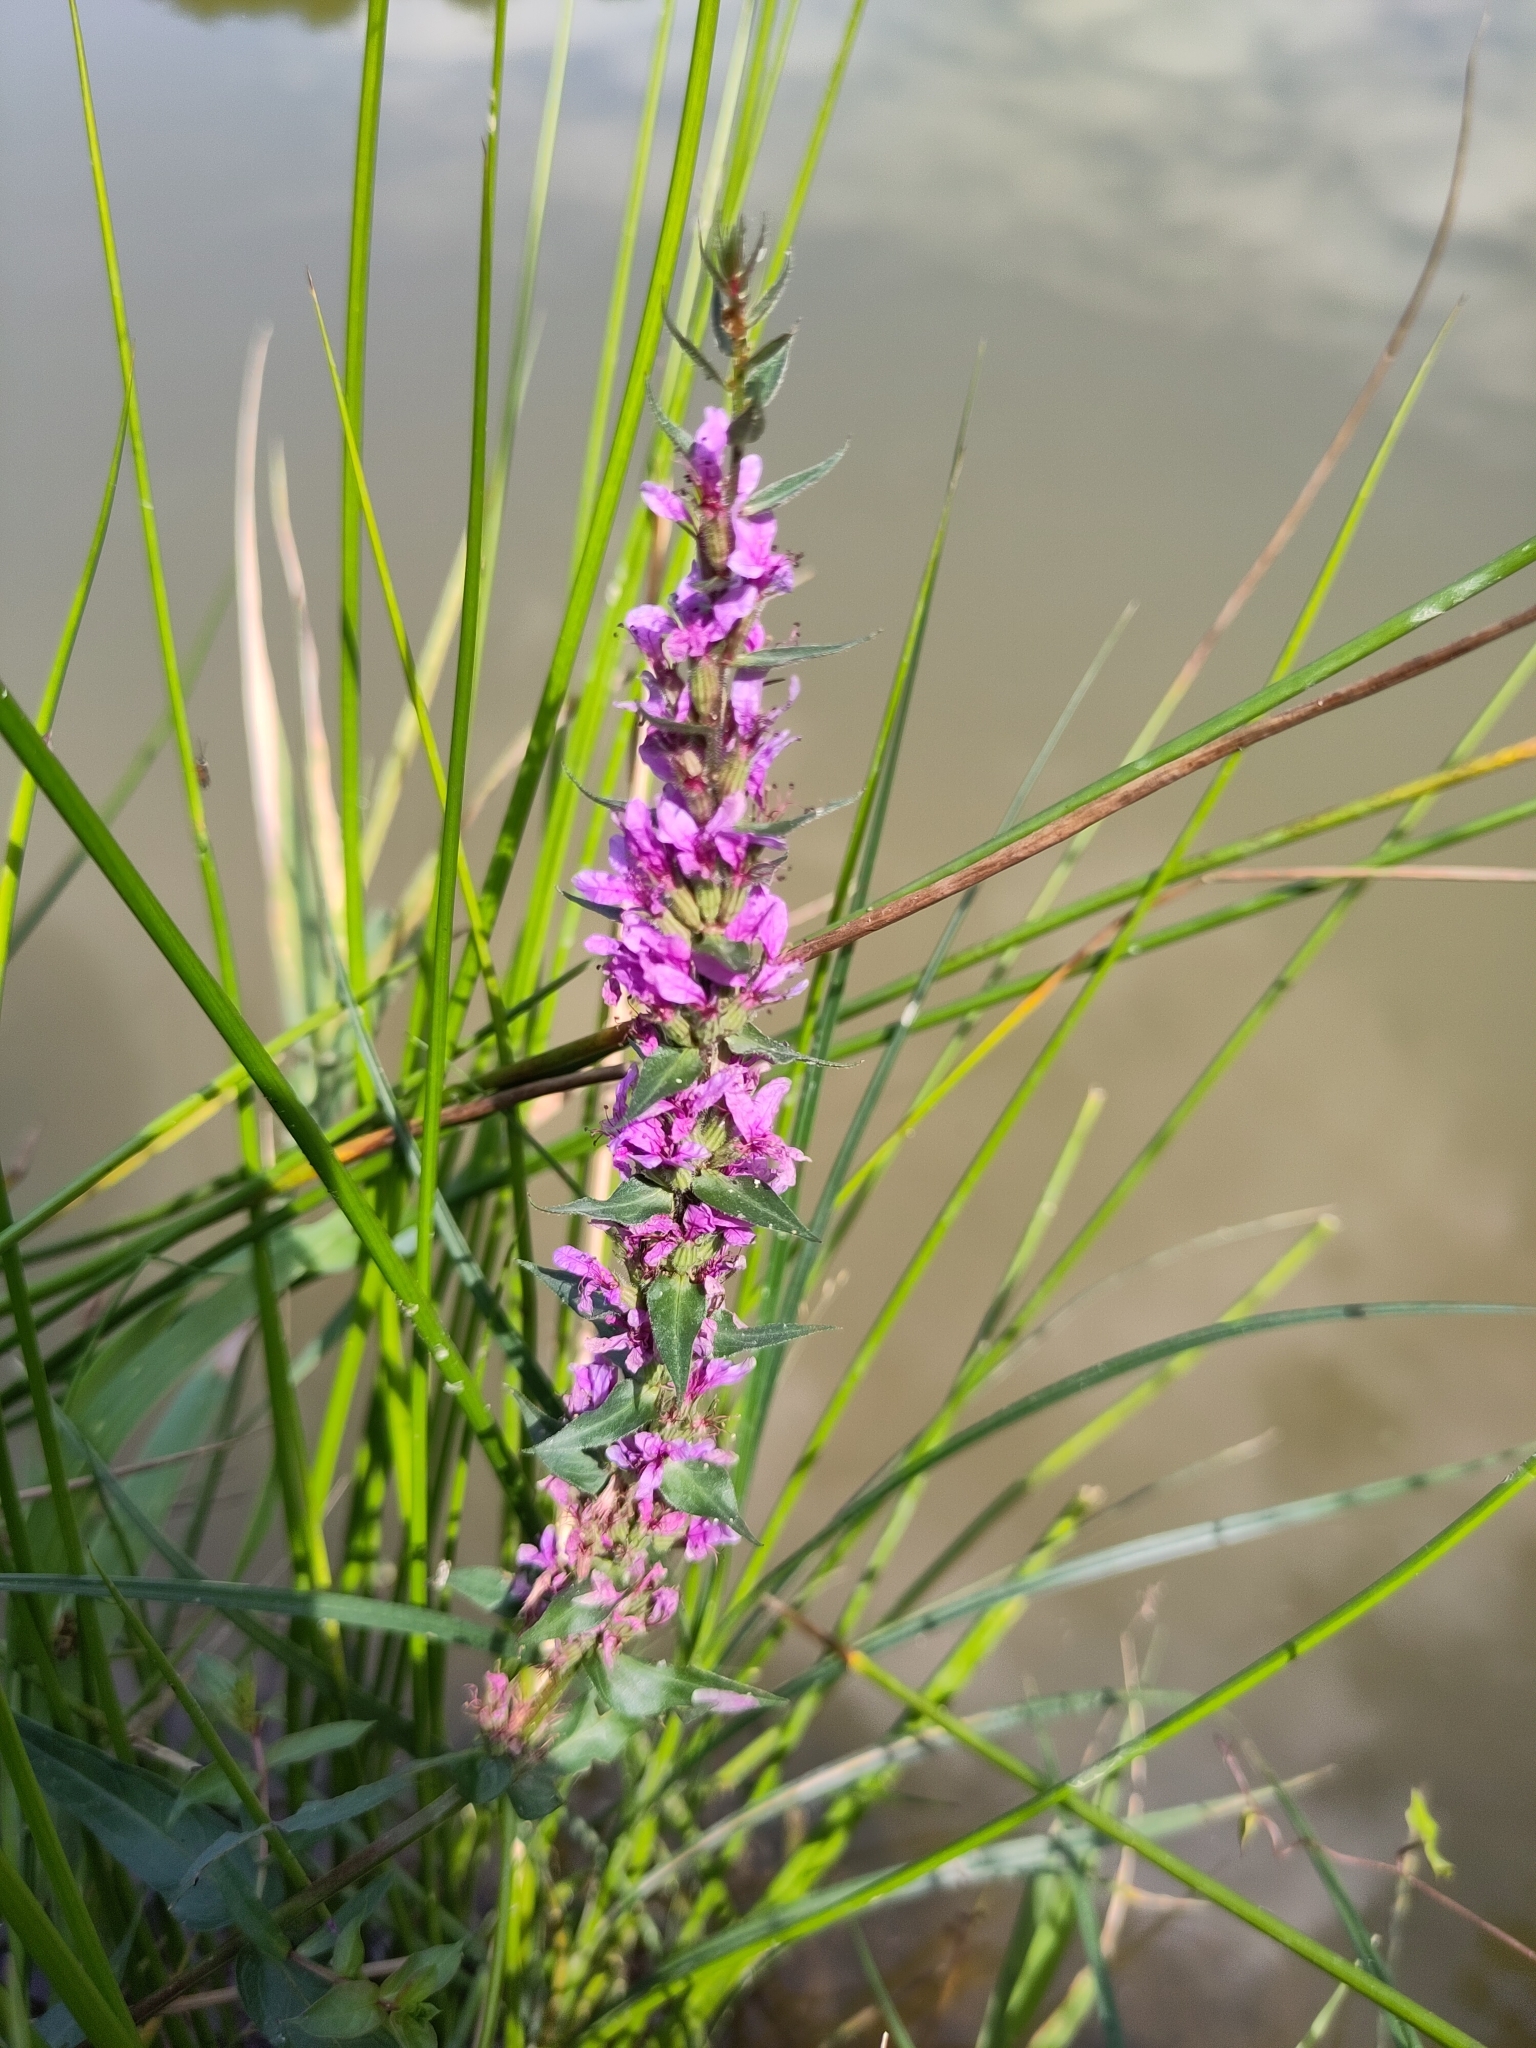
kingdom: Plantae
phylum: Tracheophyta
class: Magnoliopsida
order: Myrtales
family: Lythraceae
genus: Lythrum
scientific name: Lythrum salicaria
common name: Purple loosestrife
